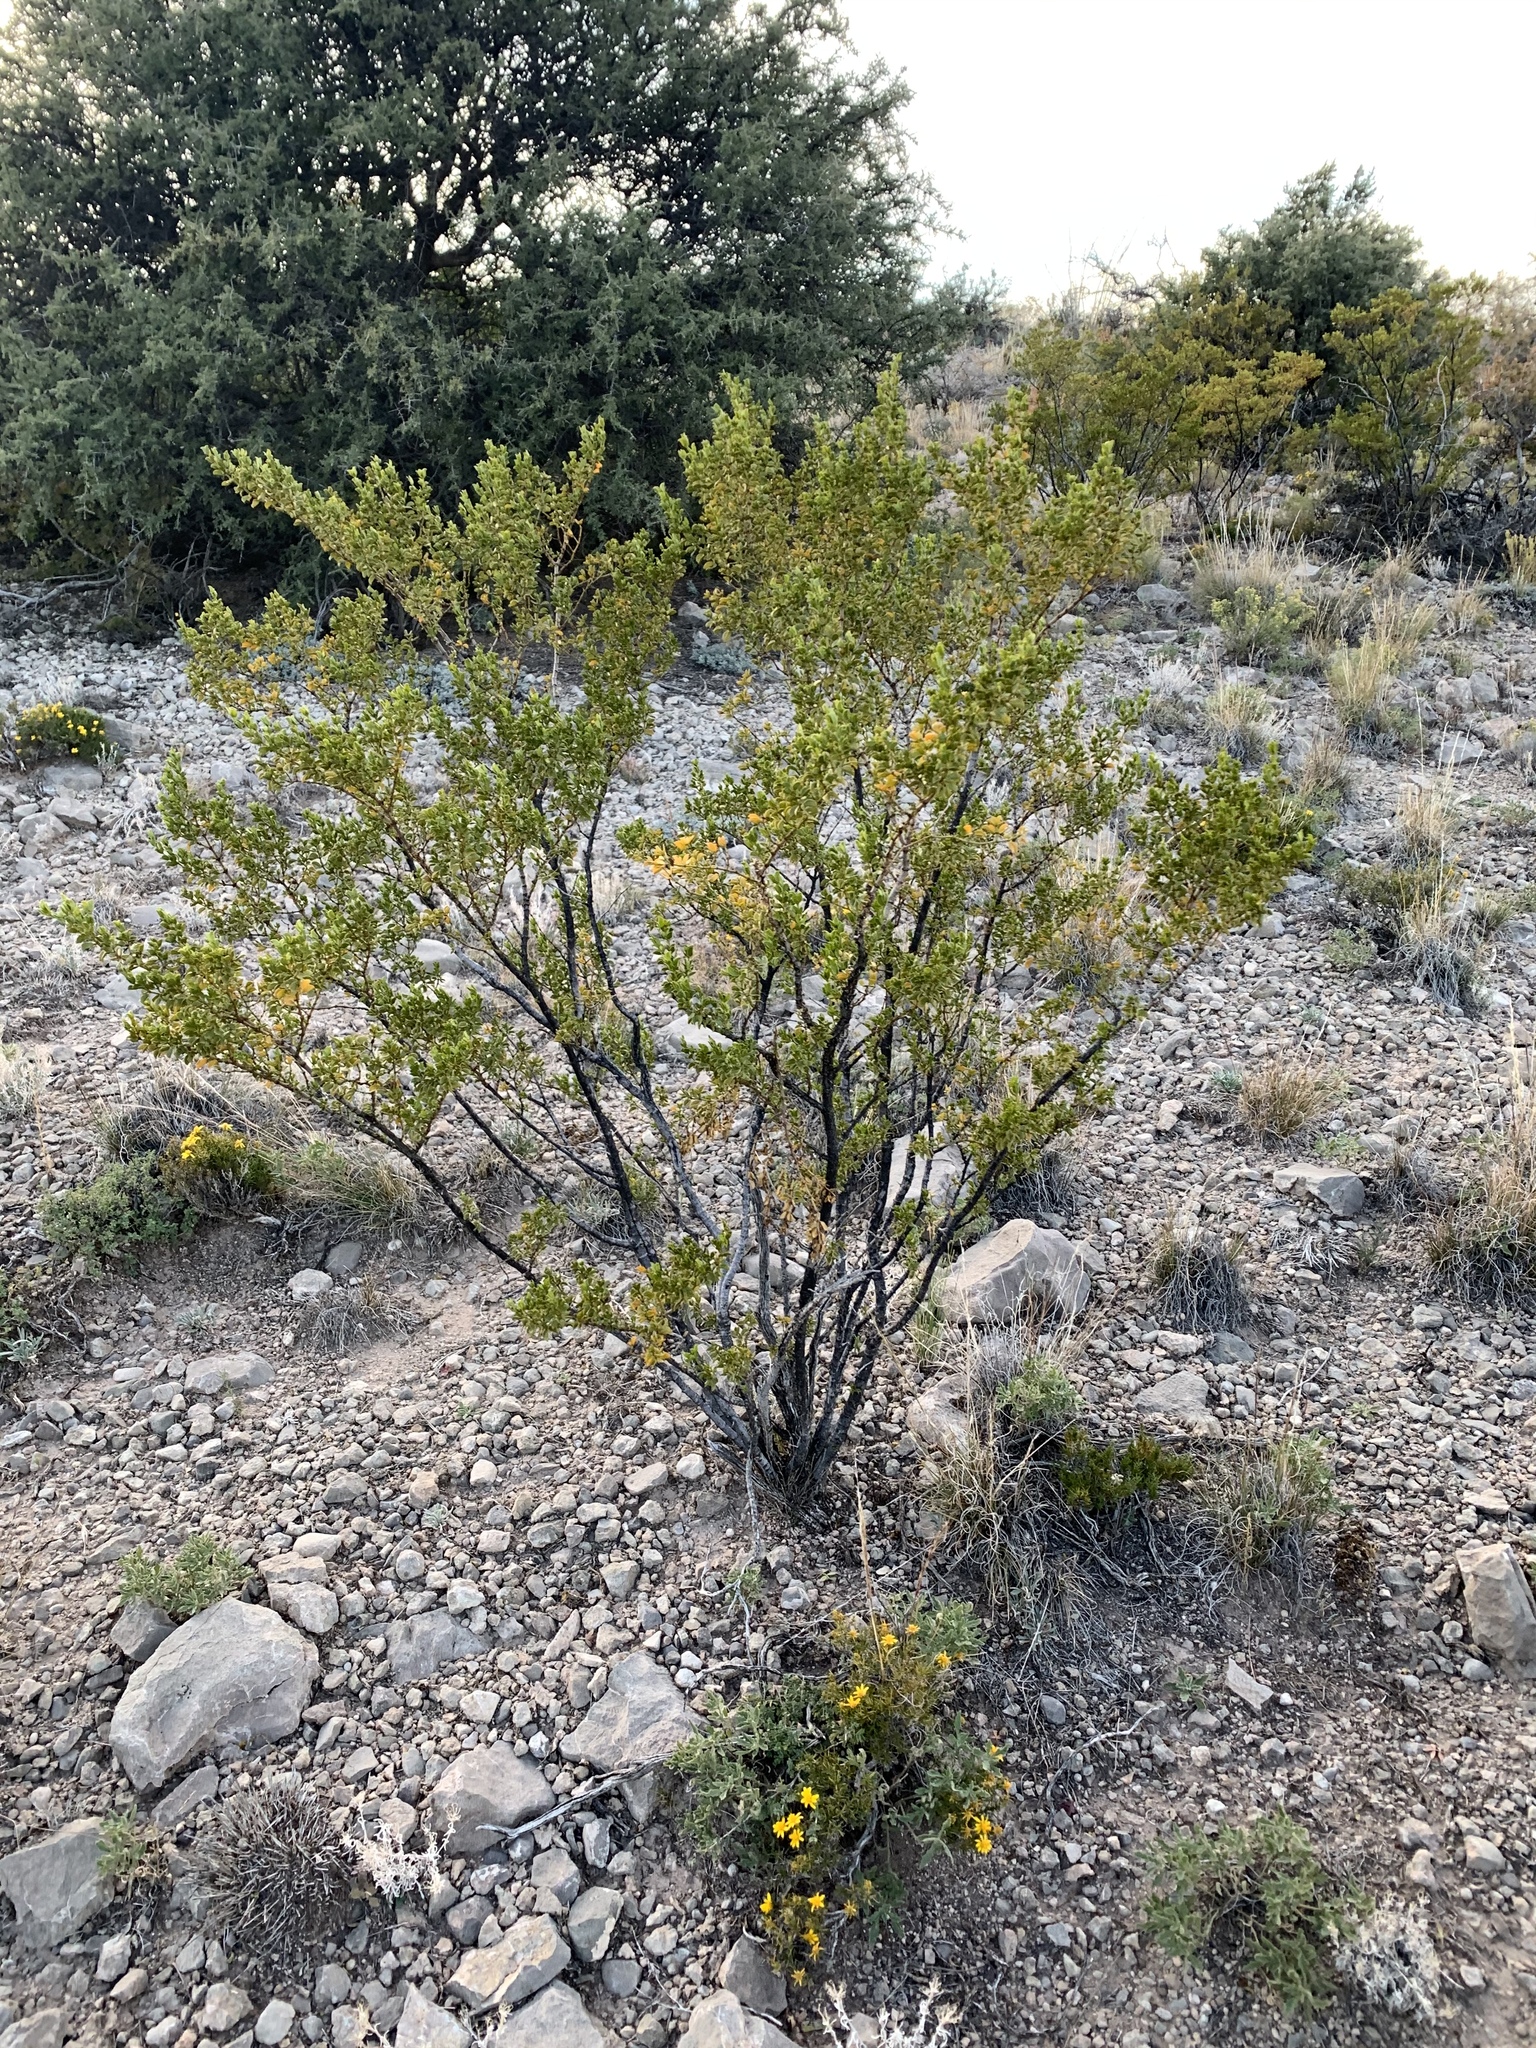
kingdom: Plantae
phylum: Tracheophyta
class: Magnoliopsida
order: Zygophyllales
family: Zygophyllaceae
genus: Larrea
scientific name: Larrea tridentata
